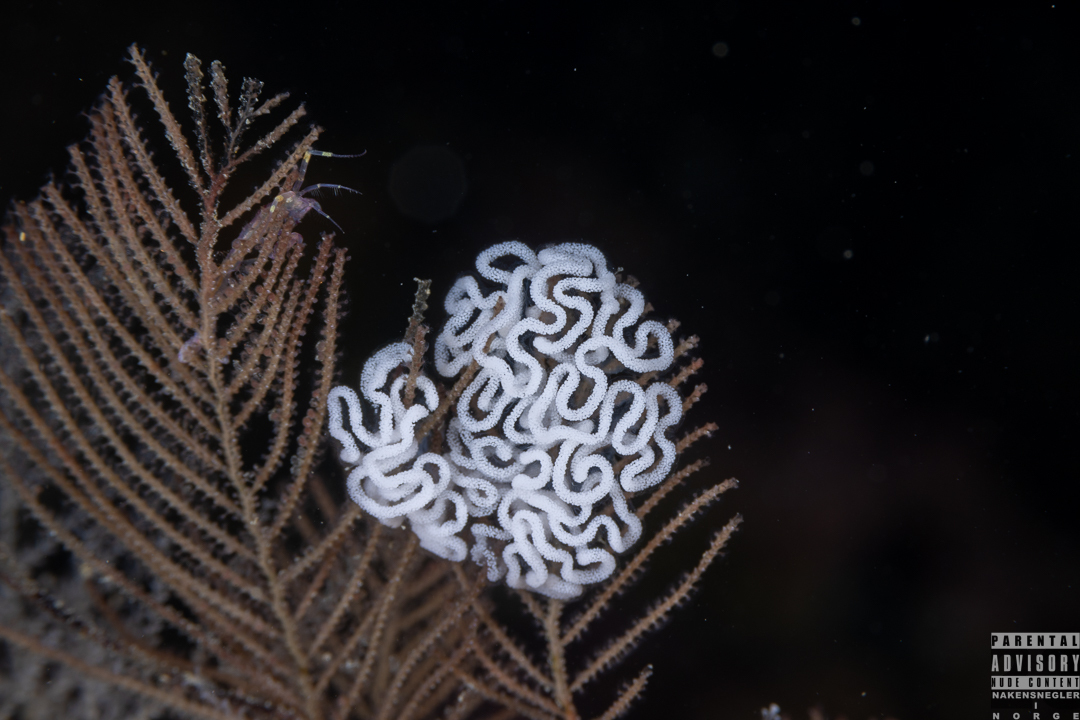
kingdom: Animalia
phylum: Mollusca
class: Gastropoda
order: Nudibranchia
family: Dendronotidae
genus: Dendronotus
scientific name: Dendronotus yrjargul
